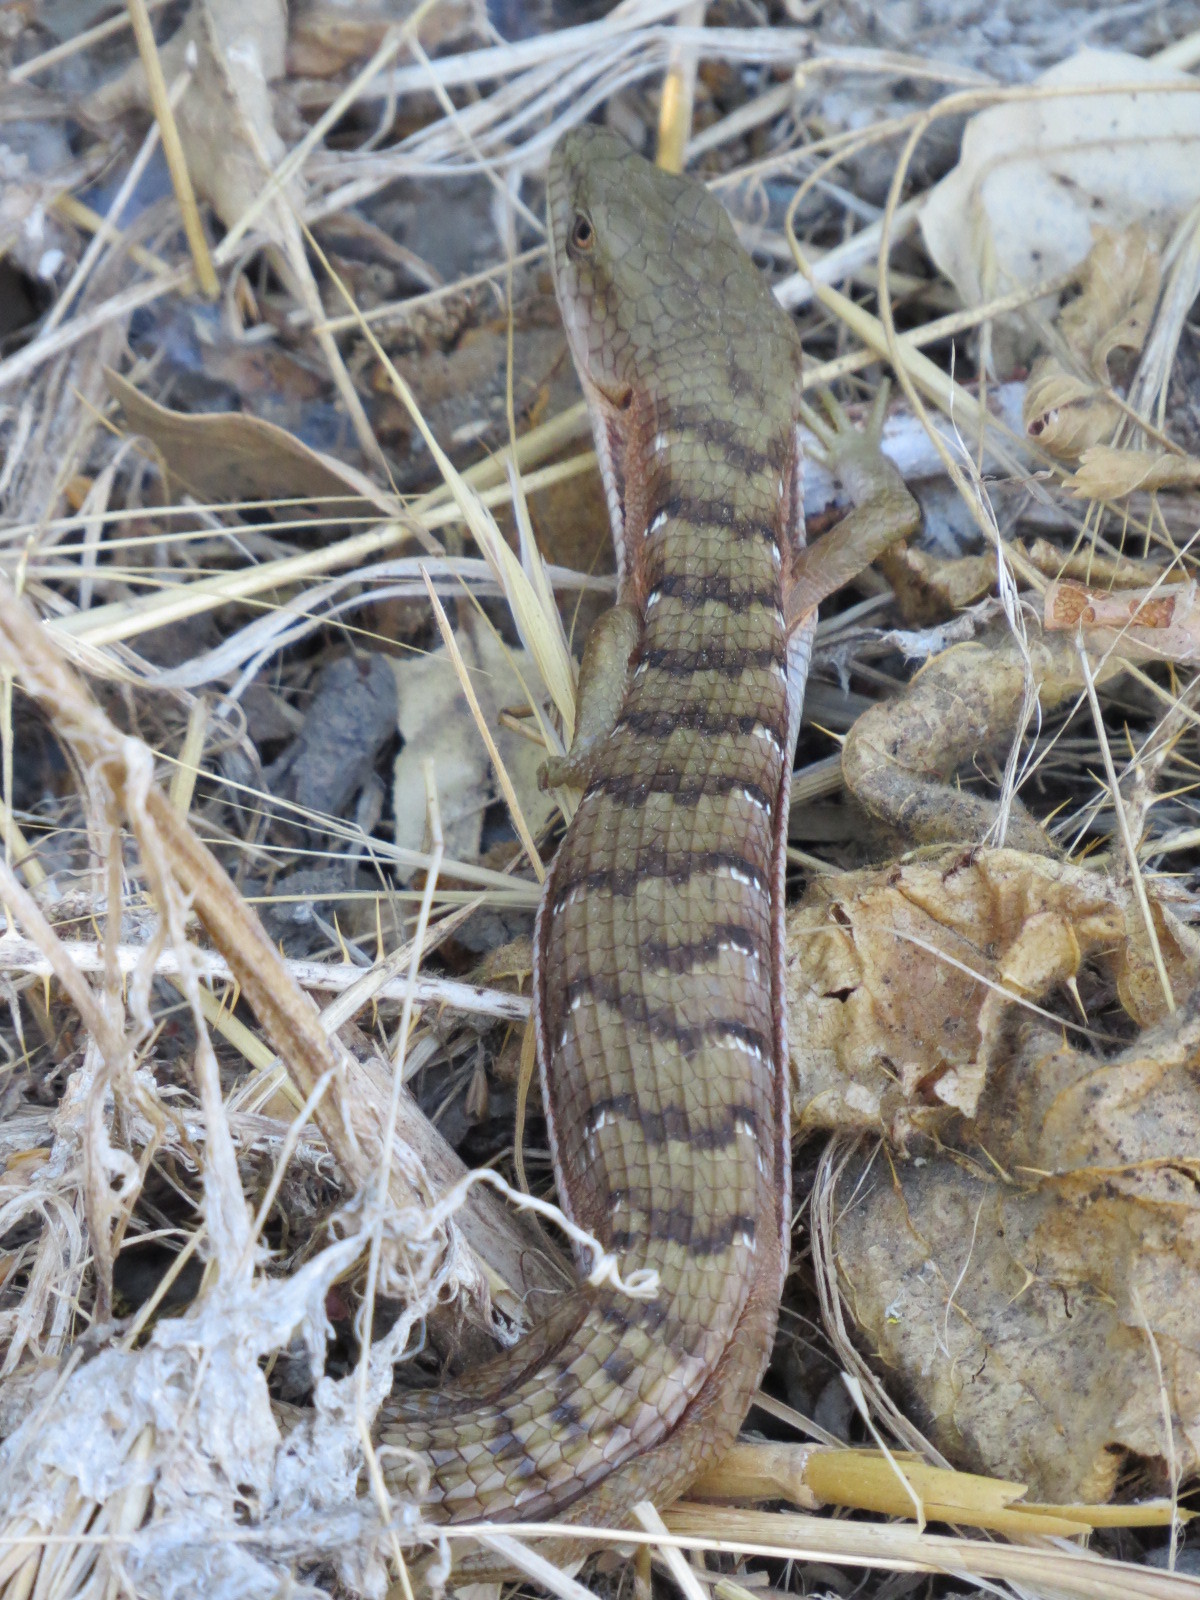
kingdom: Animalia
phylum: Chordata
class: Squamata
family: Anguidae
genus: Elgaria
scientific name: Elgaria multicarinata
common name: Southern alligator lizard
